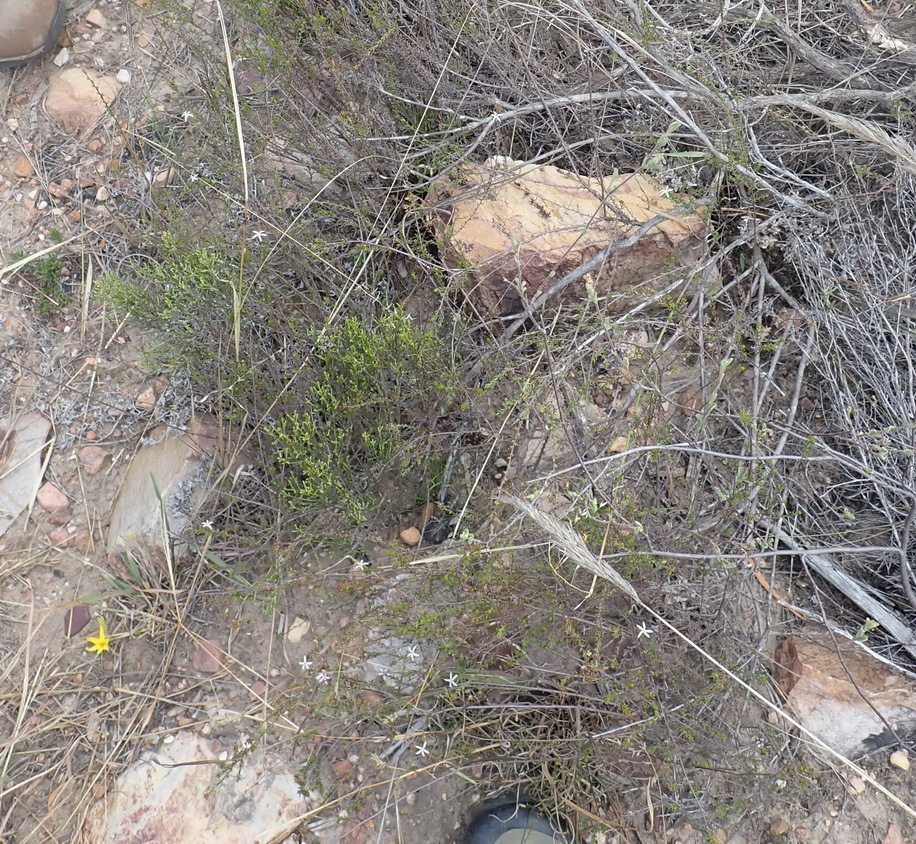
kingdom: Plantae
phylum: Tracheophyta
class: Magnoliopsida
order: Asterales
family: Campanulaceae
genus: Wahlenbergia
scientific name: Wahlenbergia rubens
